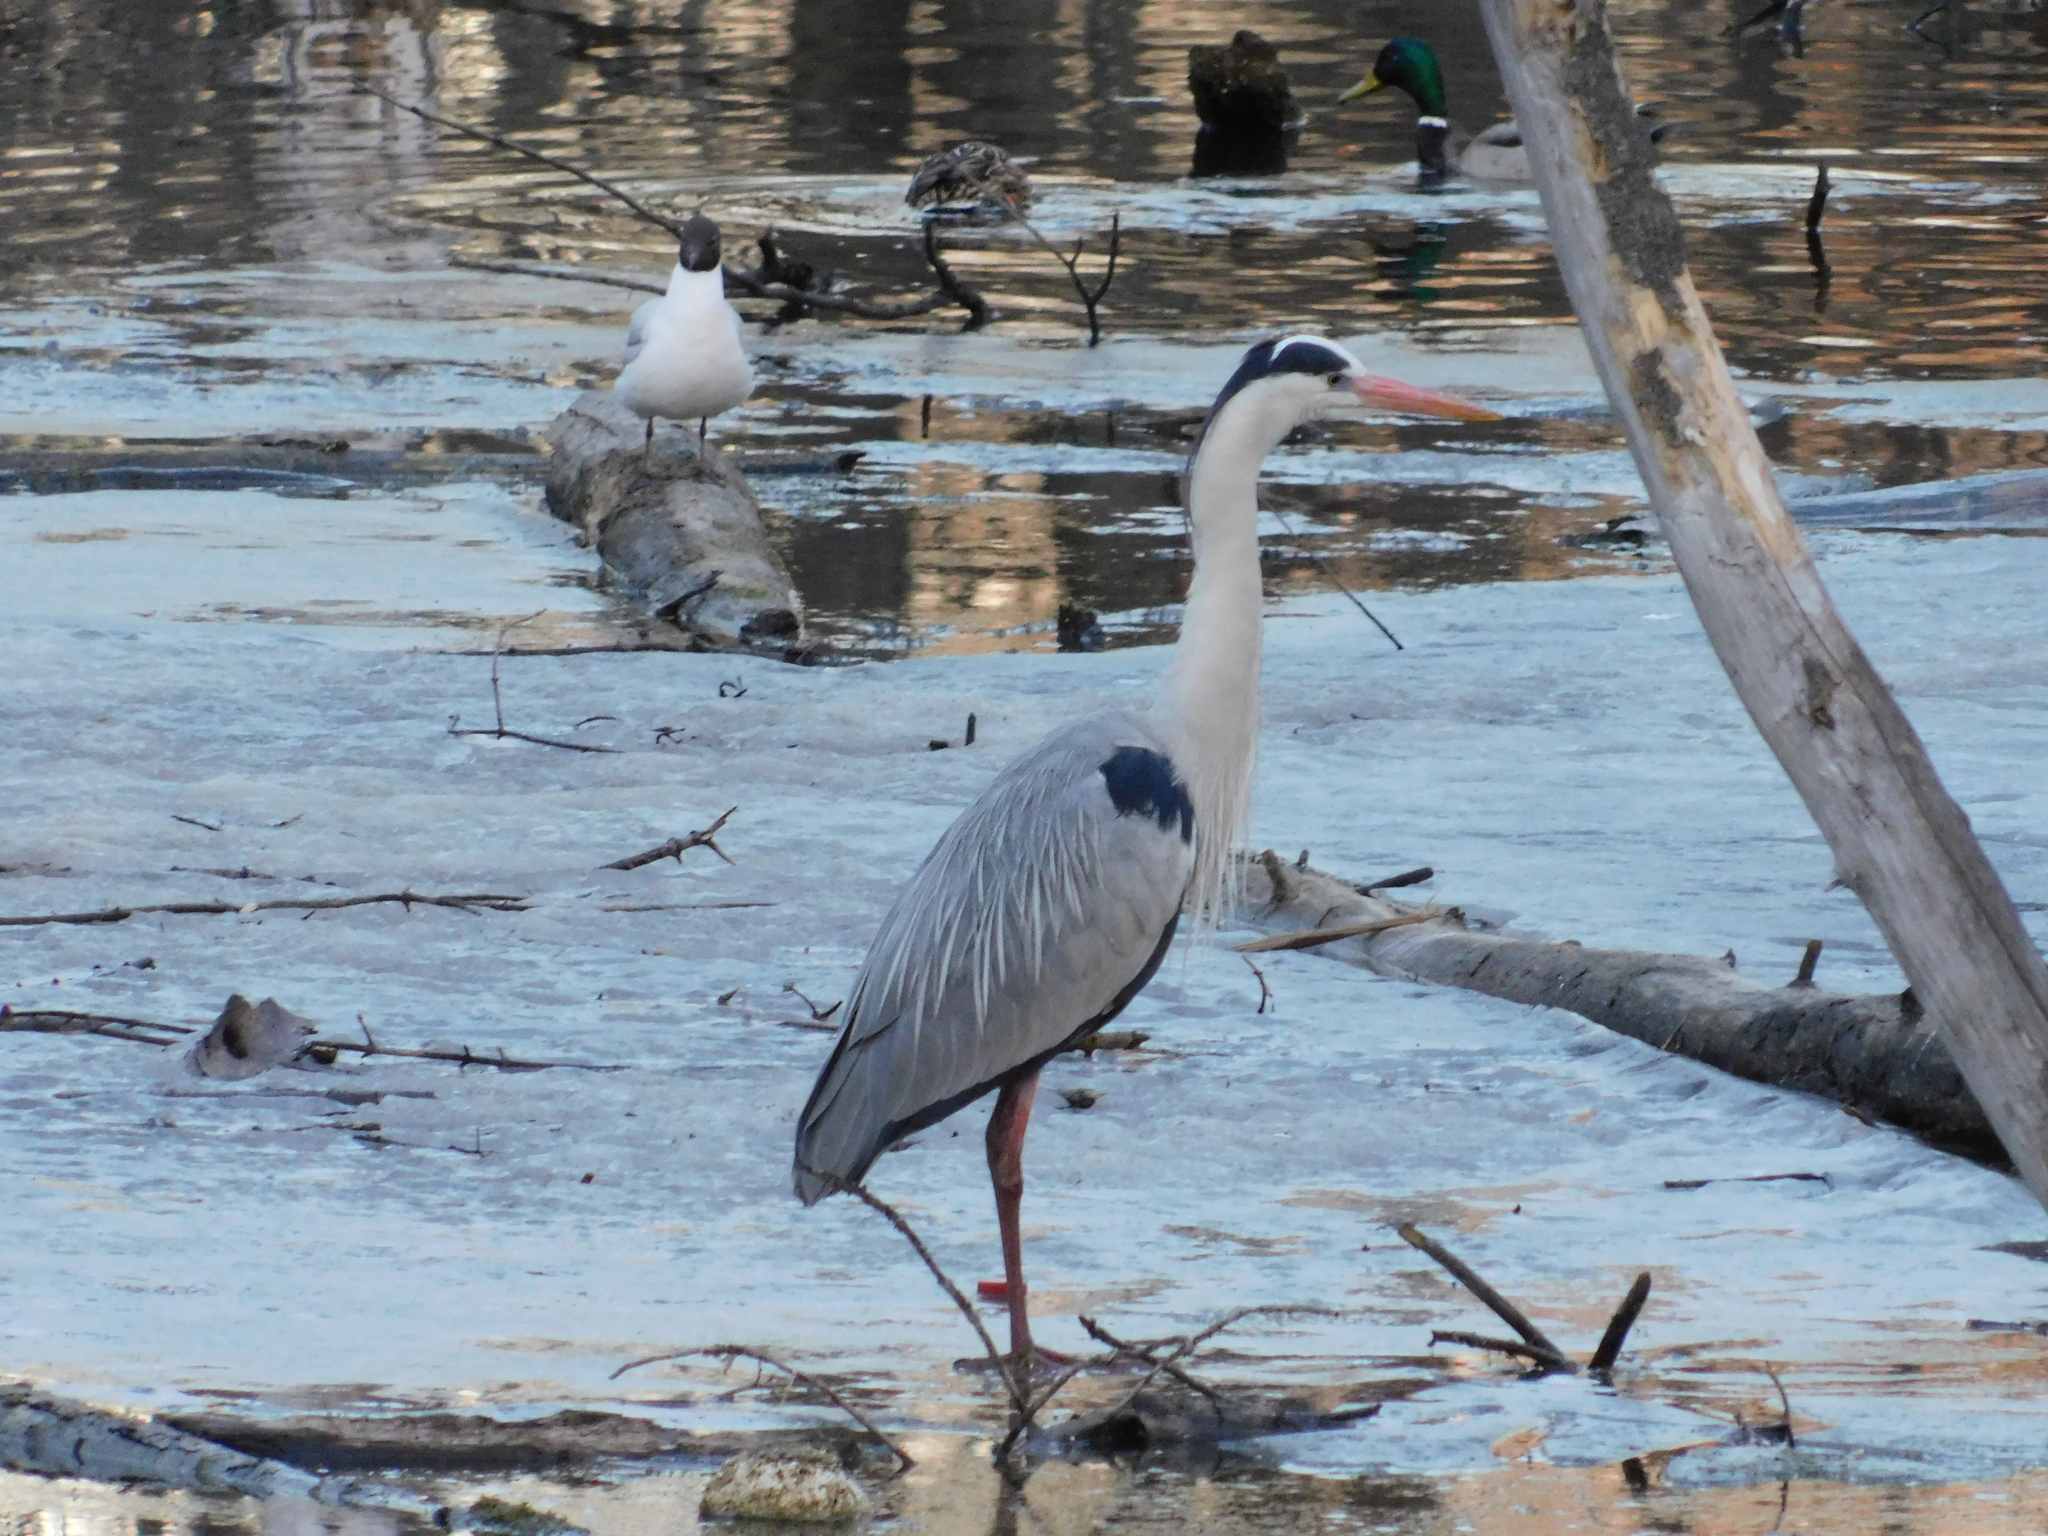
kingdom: Animalia
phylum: Chordata
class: Aves
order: Charadriiformes
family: Laridae
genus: Chroicocephalus
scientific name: Chroicocephalus ridibundus
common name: Black-headed gull
